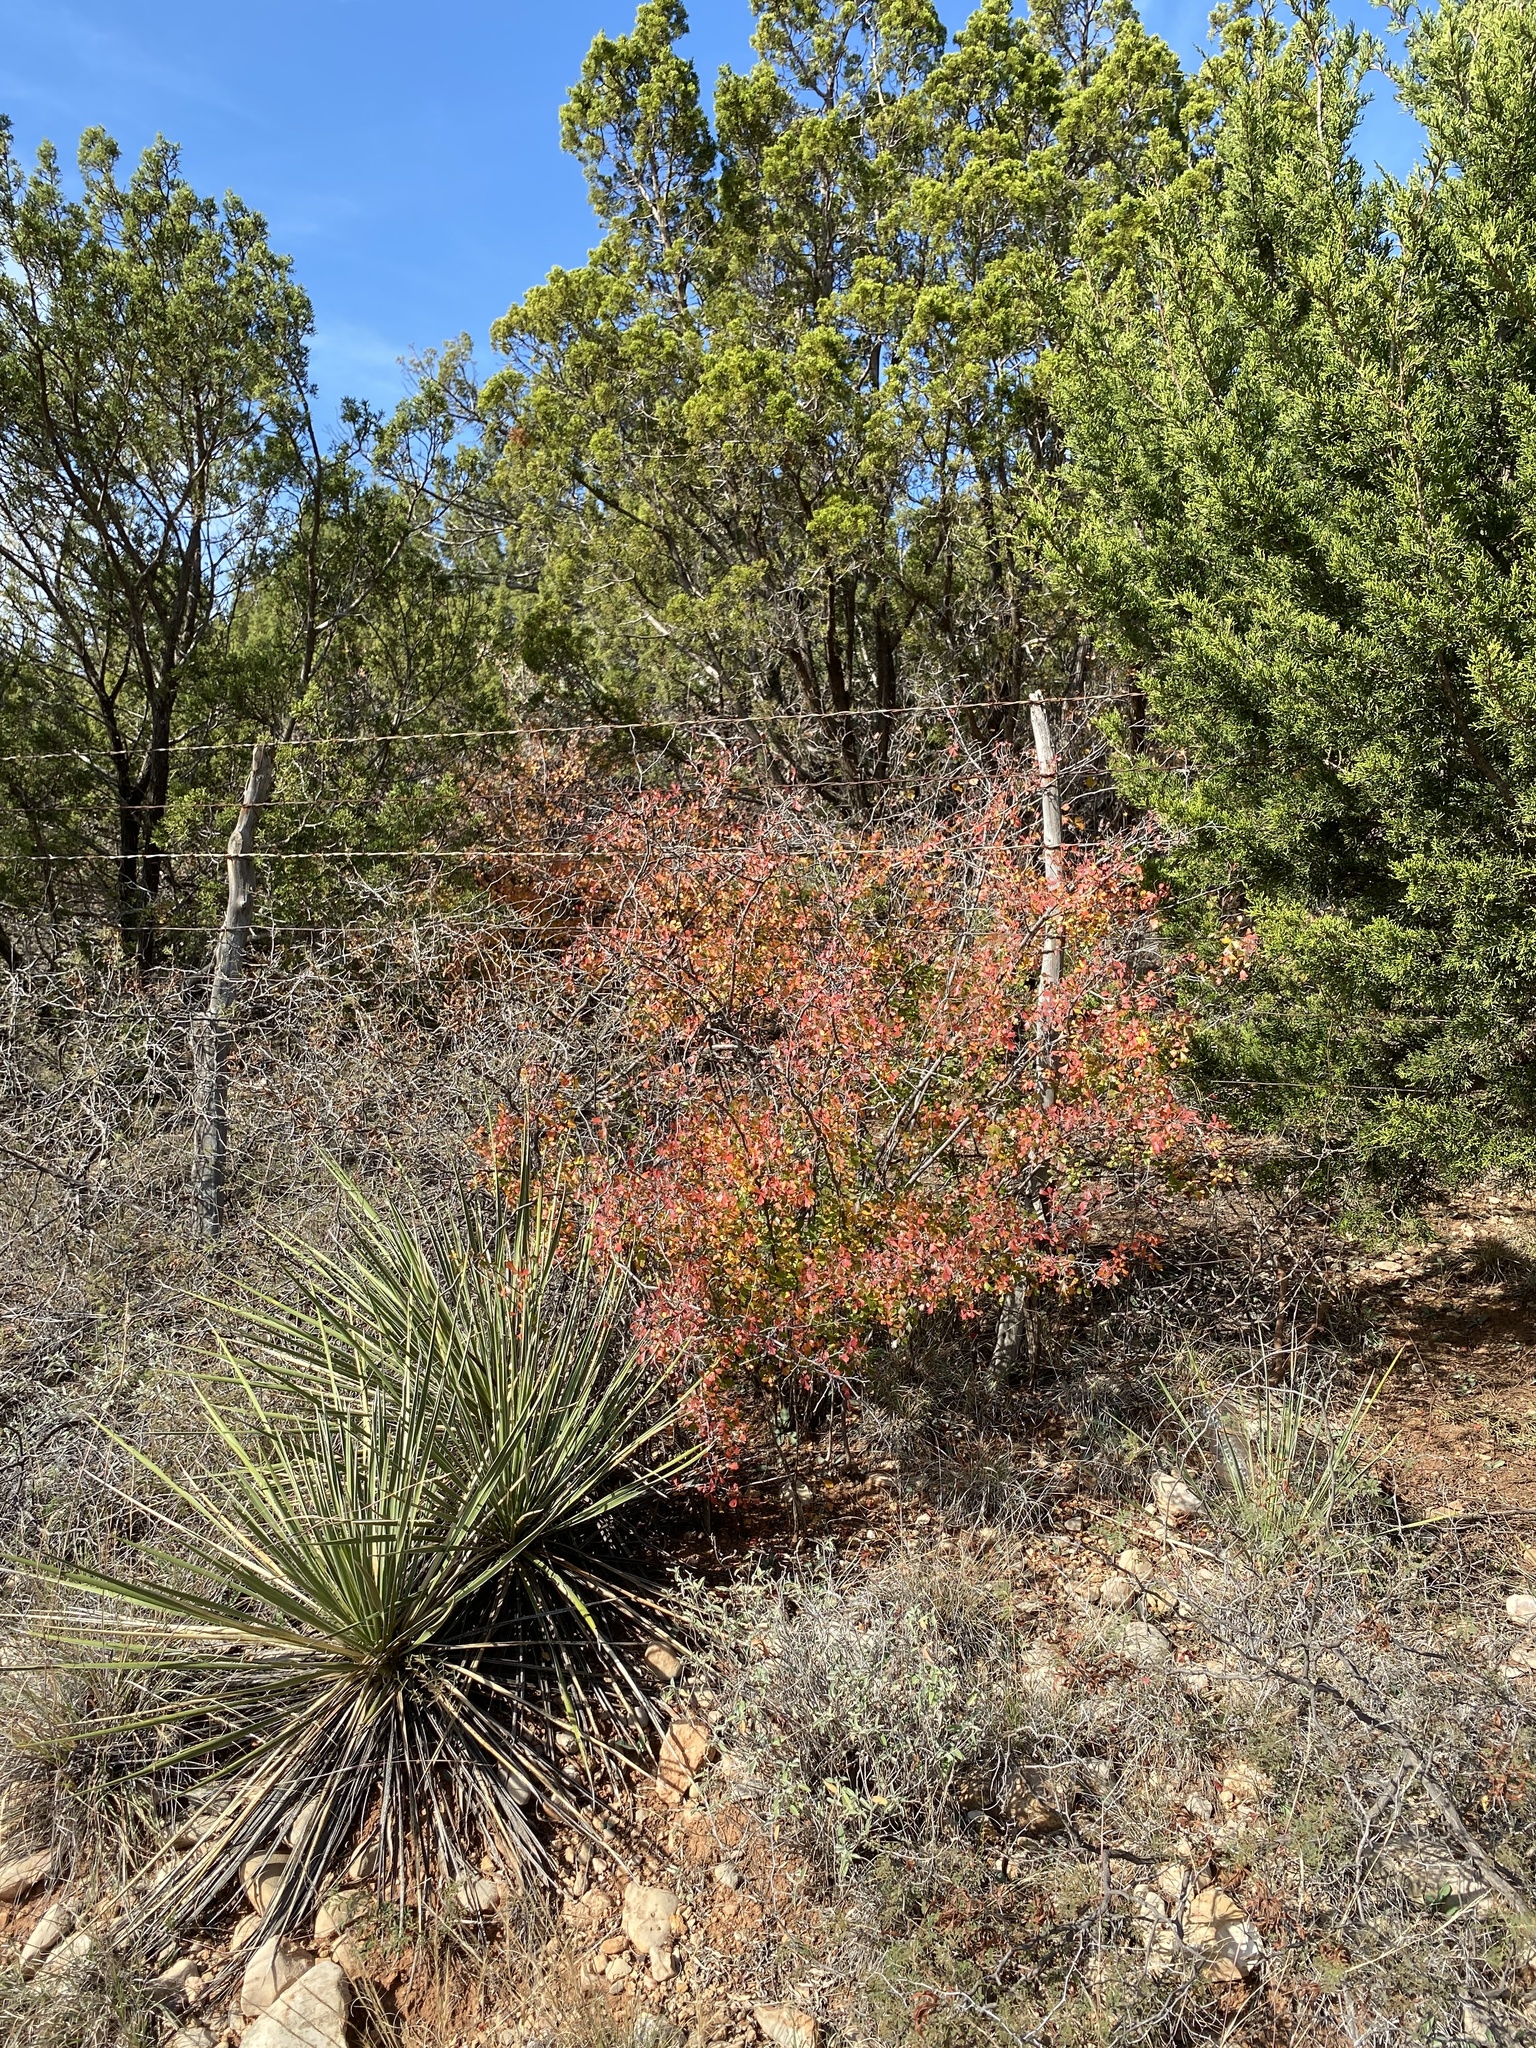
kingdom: Plantae
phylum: Tracheophyta
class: Magnoliopsida
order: Sapindales
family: Anacardiaceae
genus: Rhus
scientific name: Rhus aromatica
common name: Aromatic sumac
